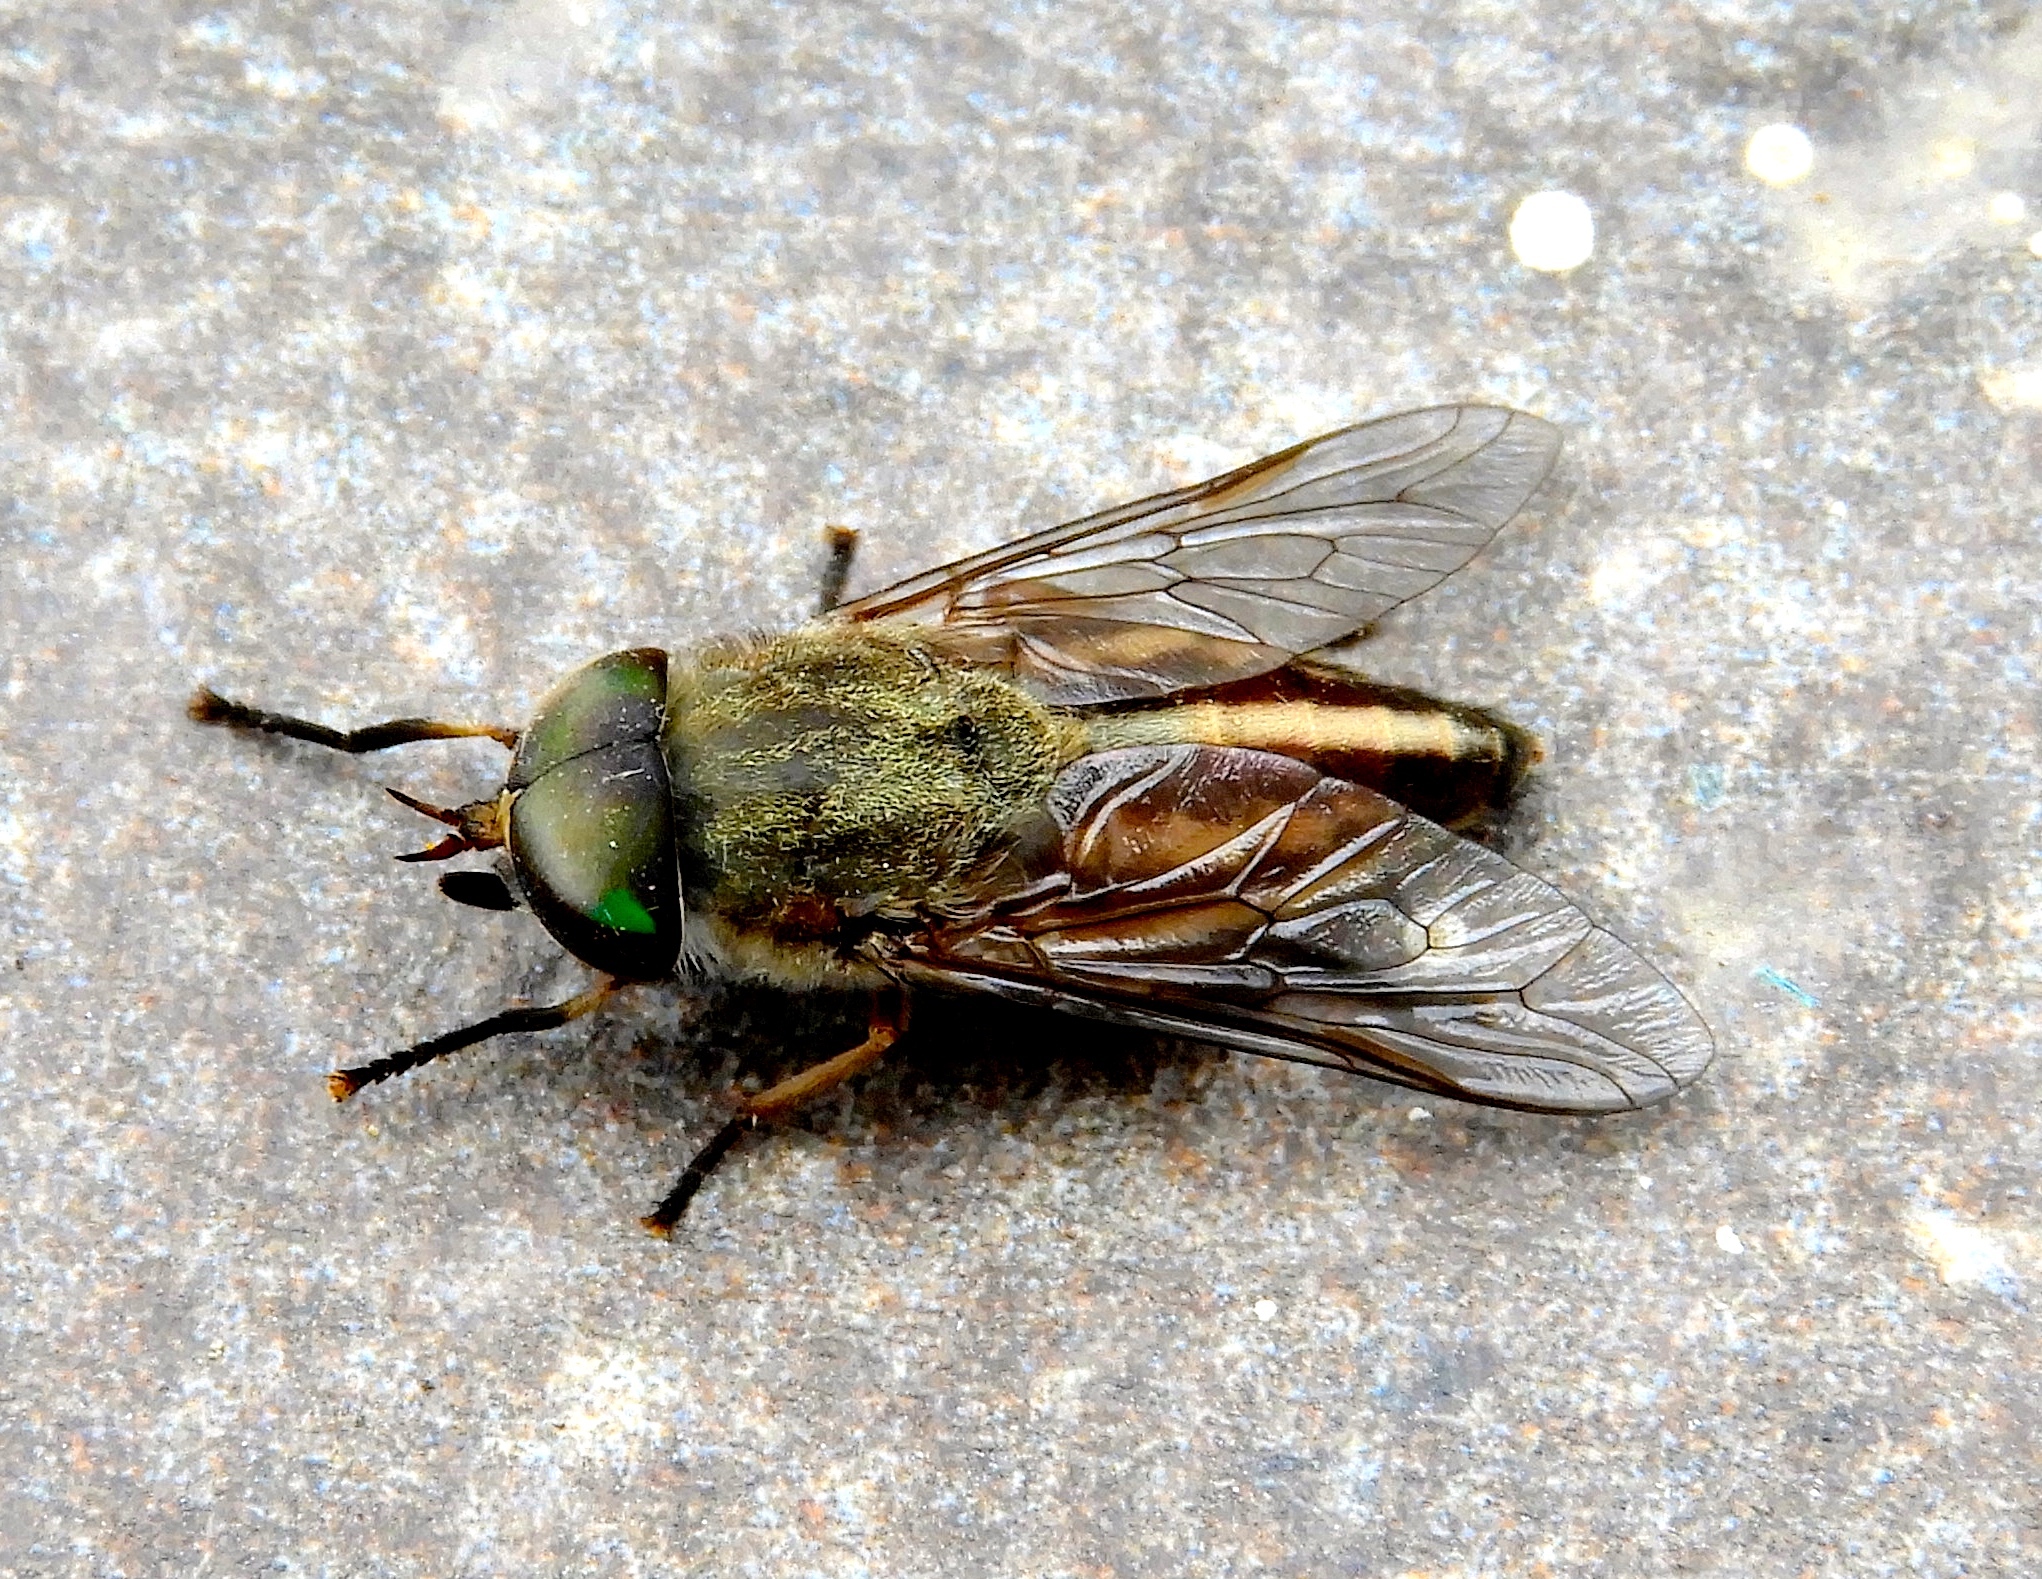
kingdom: Animalia
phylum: Arthropoda
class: Insecta
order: Diptera
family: Tabanii
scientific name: Tabanii
